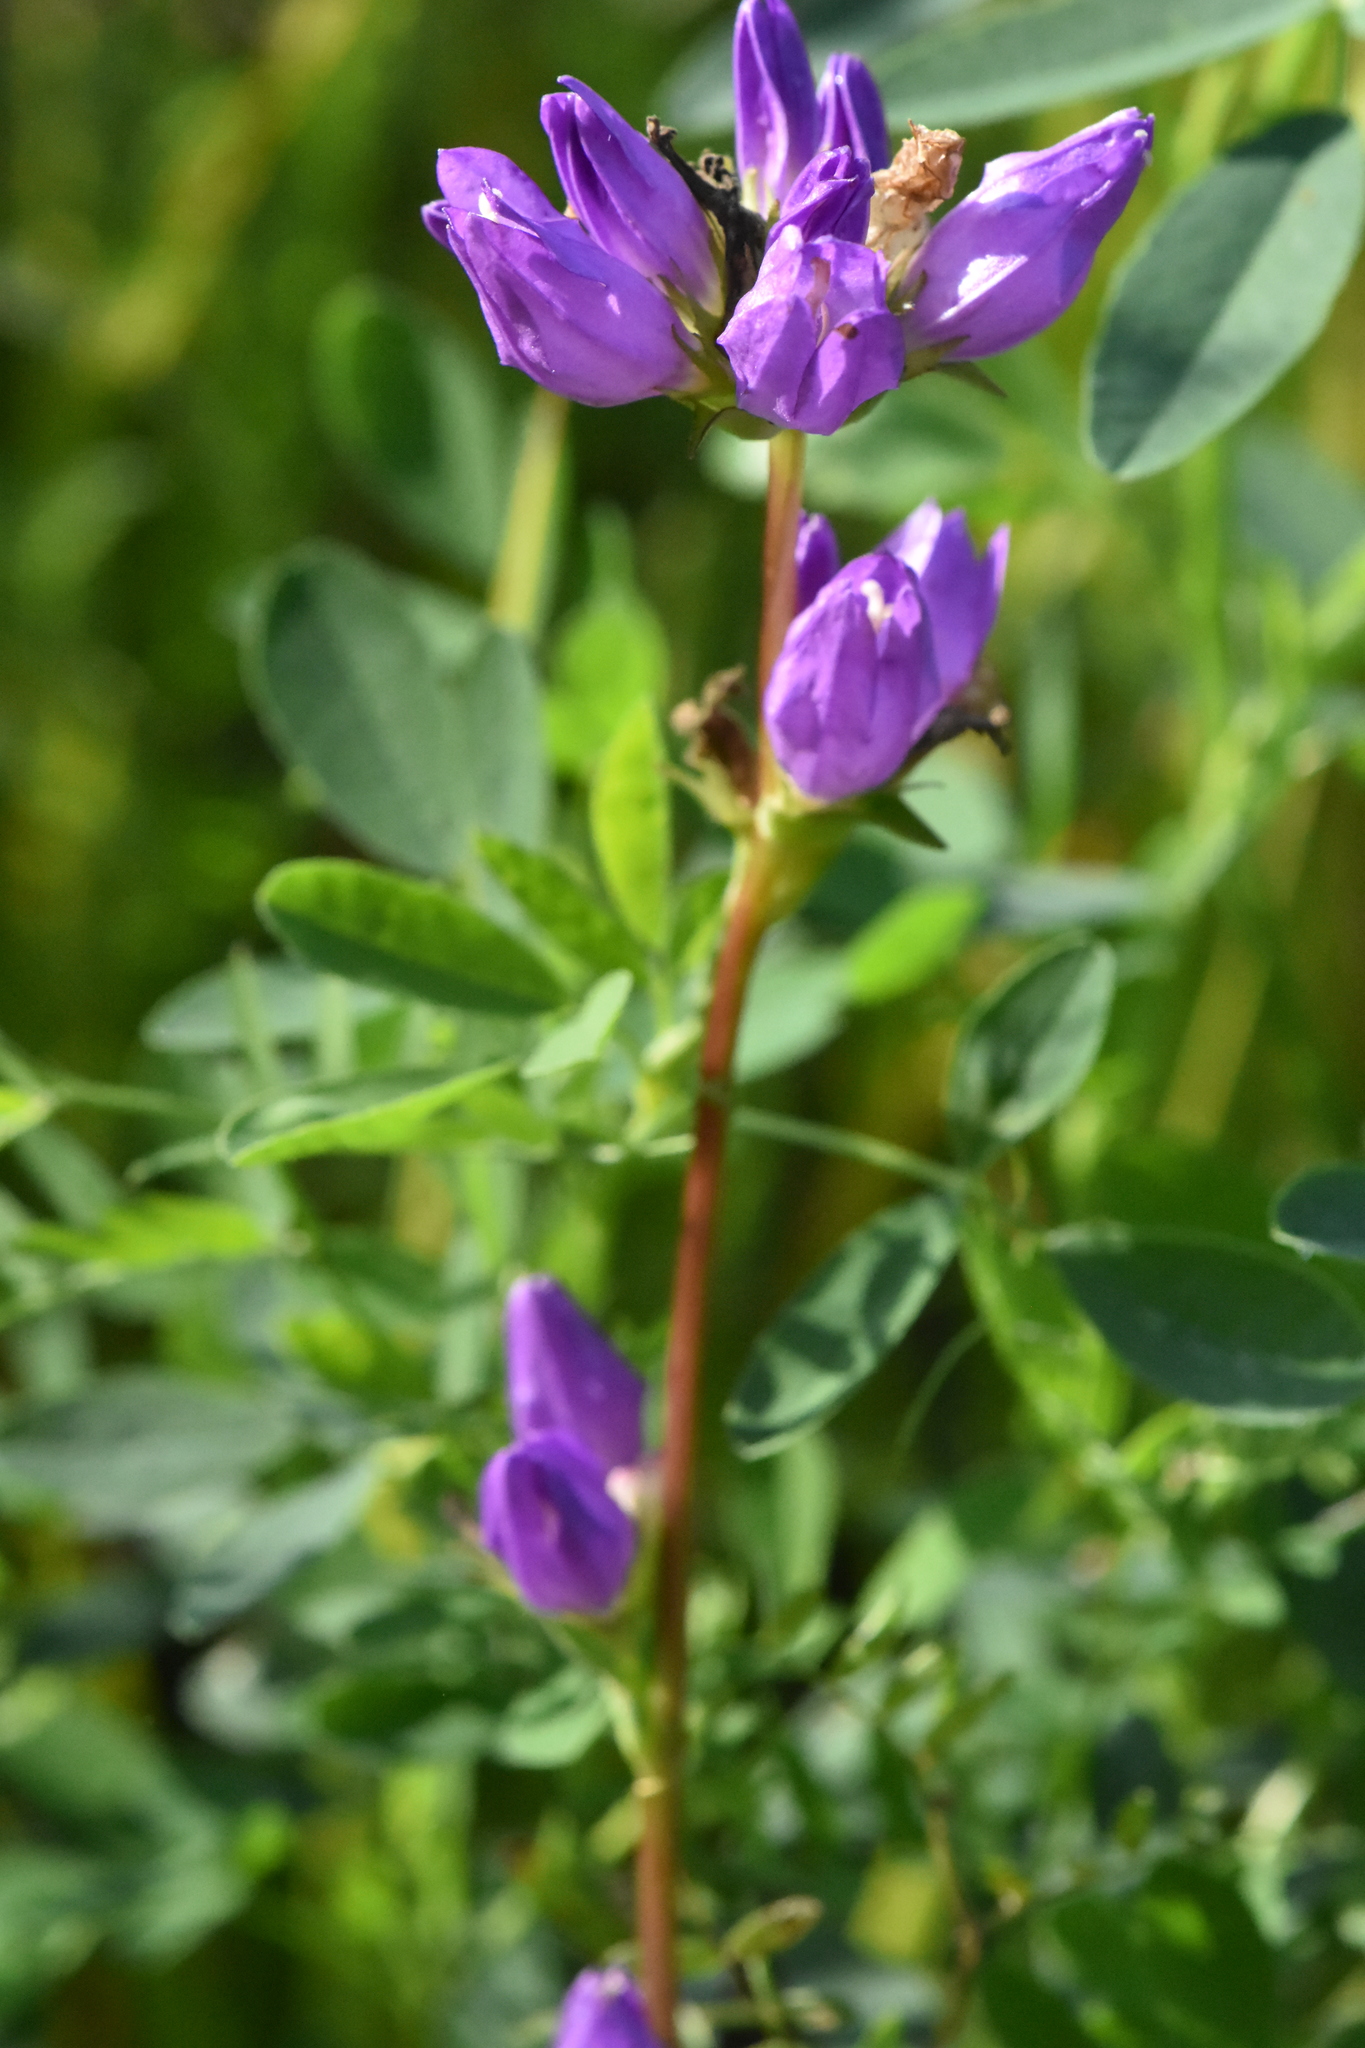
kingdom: Plantae
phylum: Tracheophyta
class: Magnoliopsida
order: Asterales
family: Campanulaceae
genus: Campanula
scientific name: Campanula glomerata
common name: Clustered bellflower
